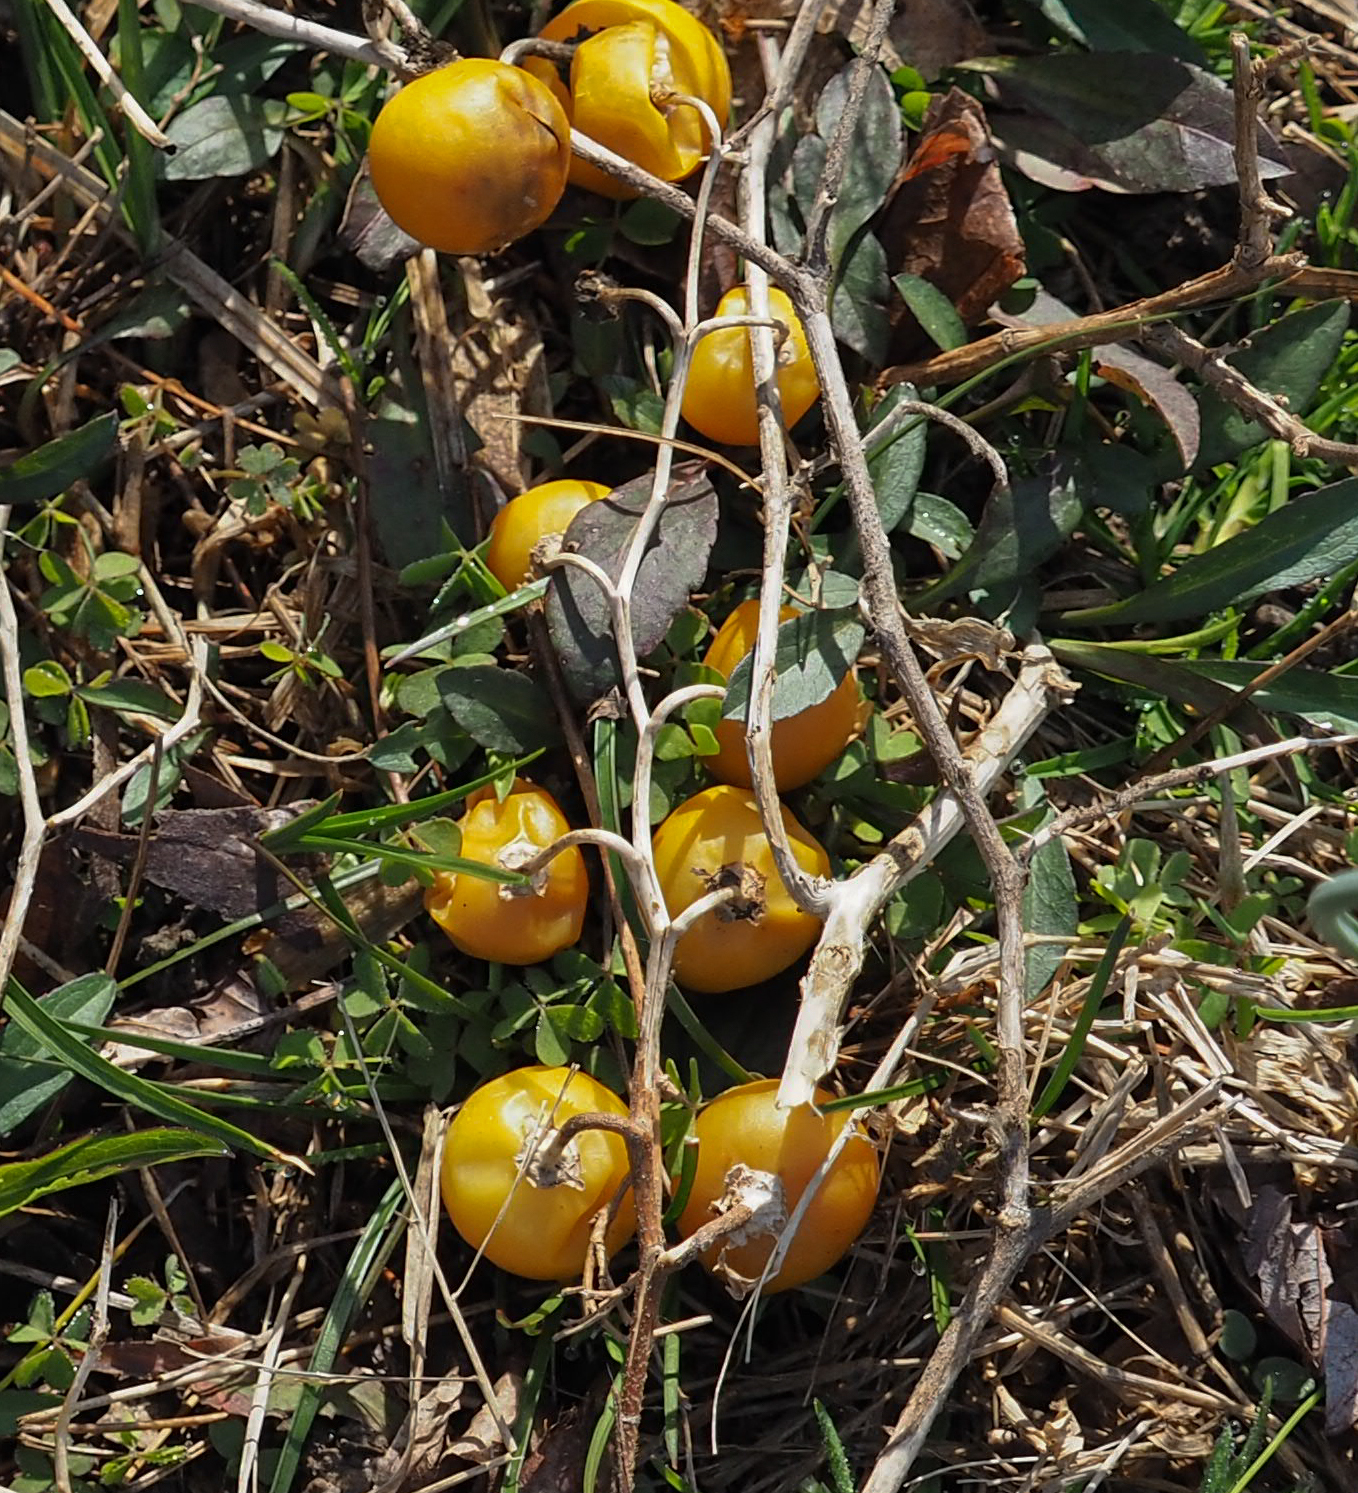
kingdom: Plantae
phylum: Tracheophyta
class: Magnoliopsida
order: Solanales
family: Solanaceae
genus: Solanum
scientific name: Solanum carolinense
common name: Horse-nettle
